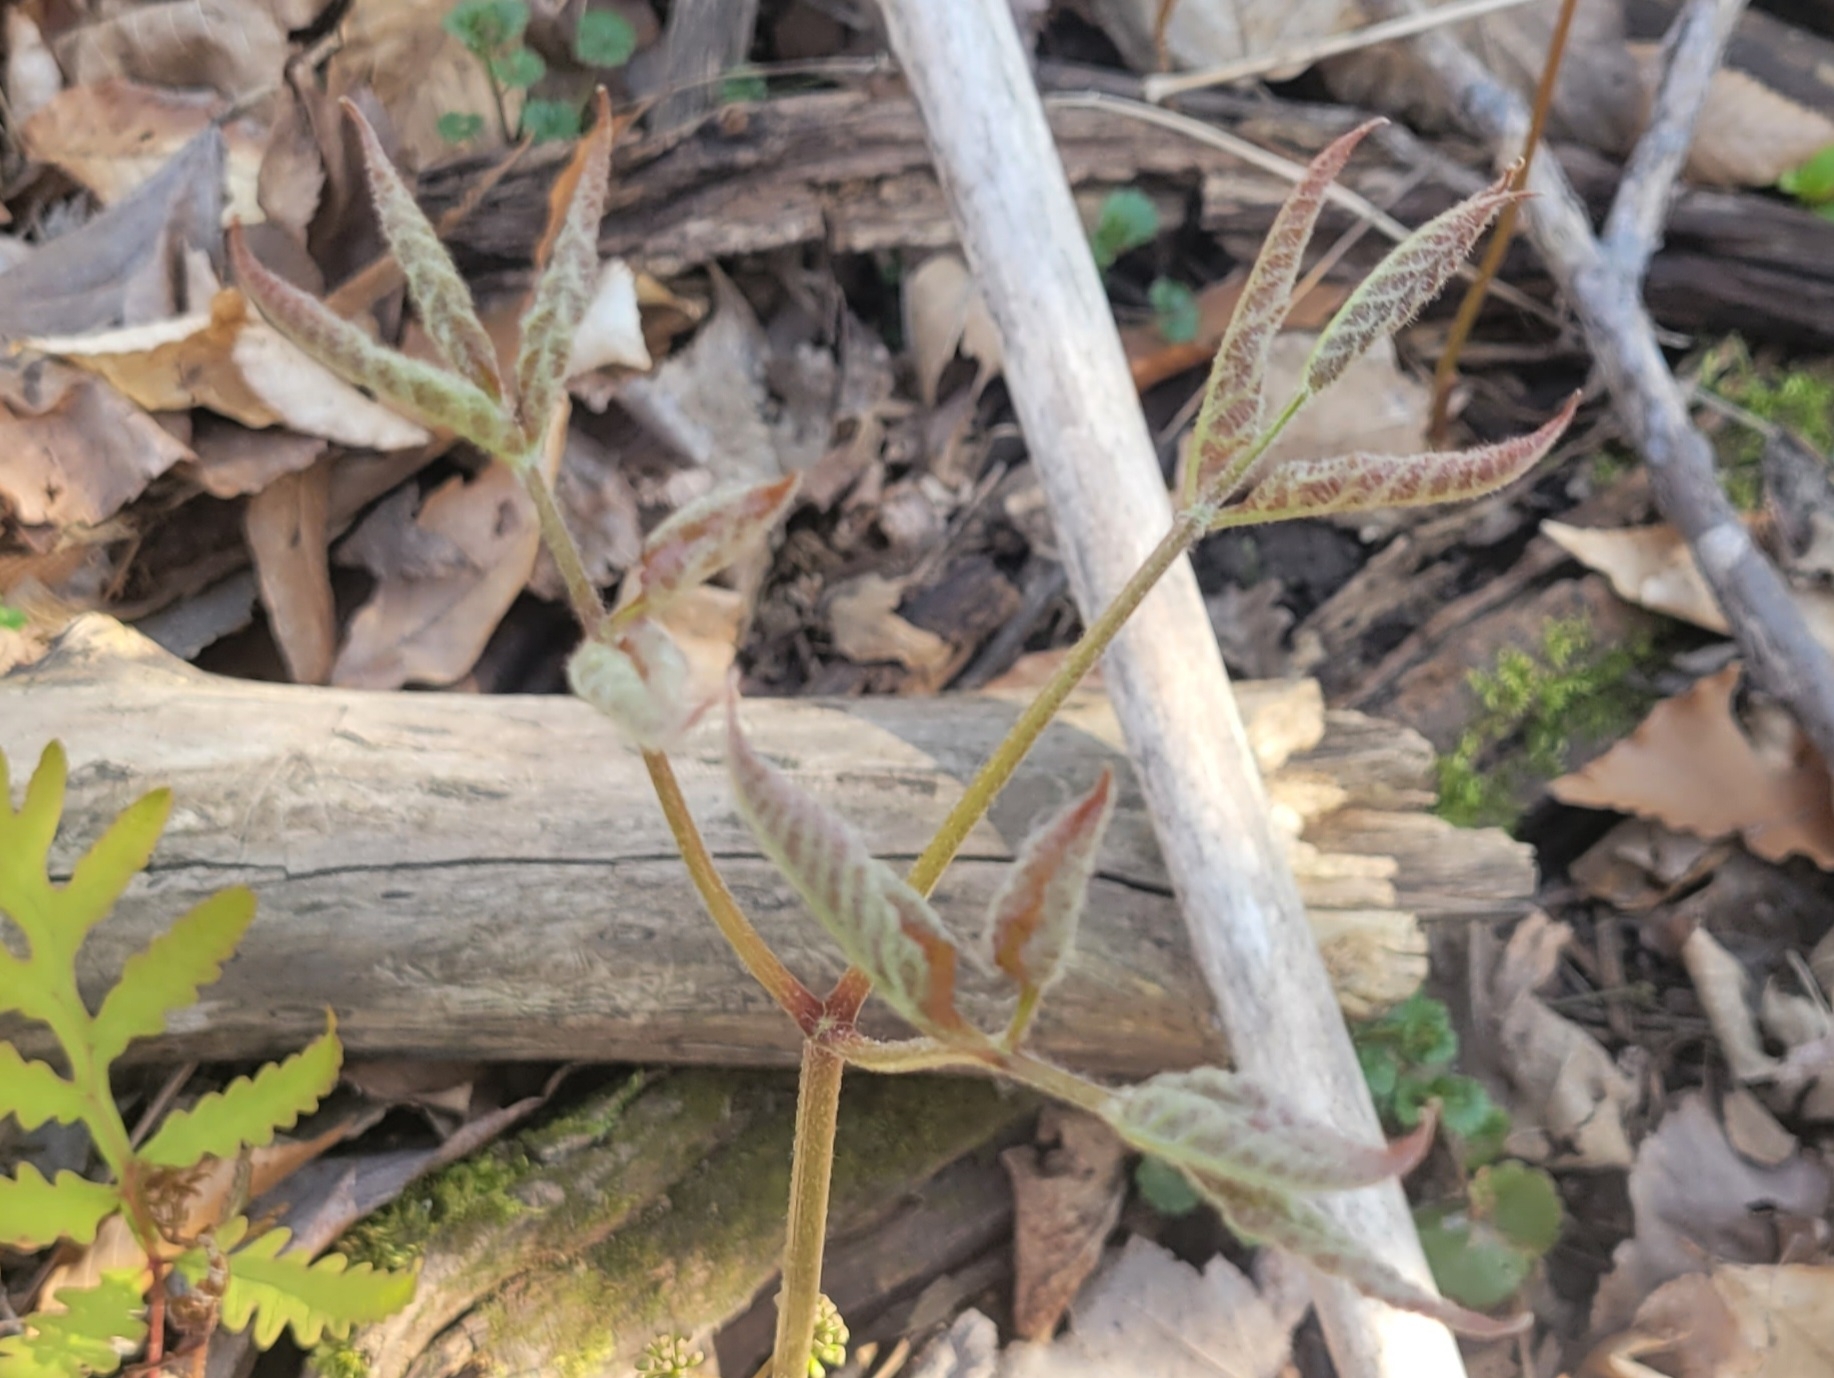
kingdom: Plantae
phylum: Tracheophyta
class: Magnoliopsida
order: Apiales
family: Araliaceae
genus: Aralia
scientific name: Aralia nudicaulis
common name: Wild sarsaparilla
